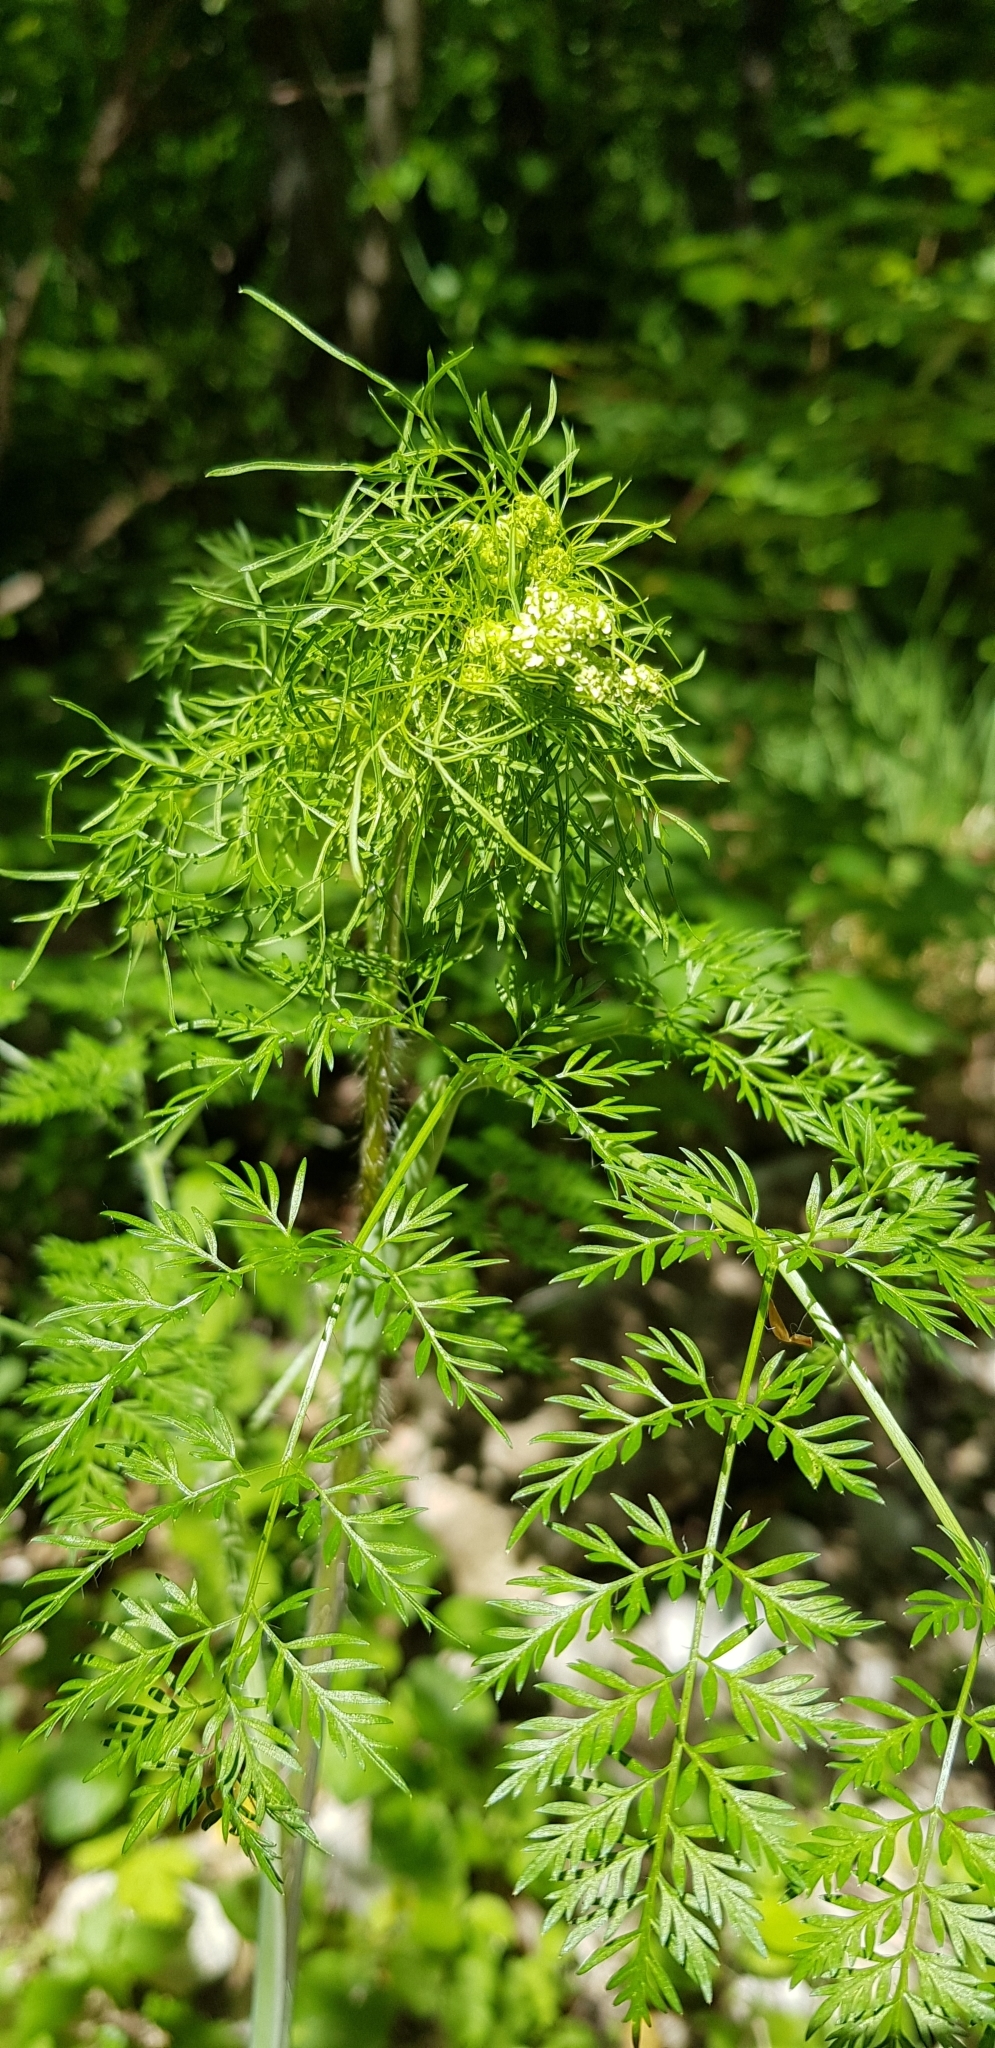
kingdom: Plantae
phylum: Tracheophyta
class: Magnoliopsida
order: Apiales
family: Apiaceae
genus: Chaerophyllum
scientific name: Chaerophyllum bulbosum
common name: Bulbous chervil
